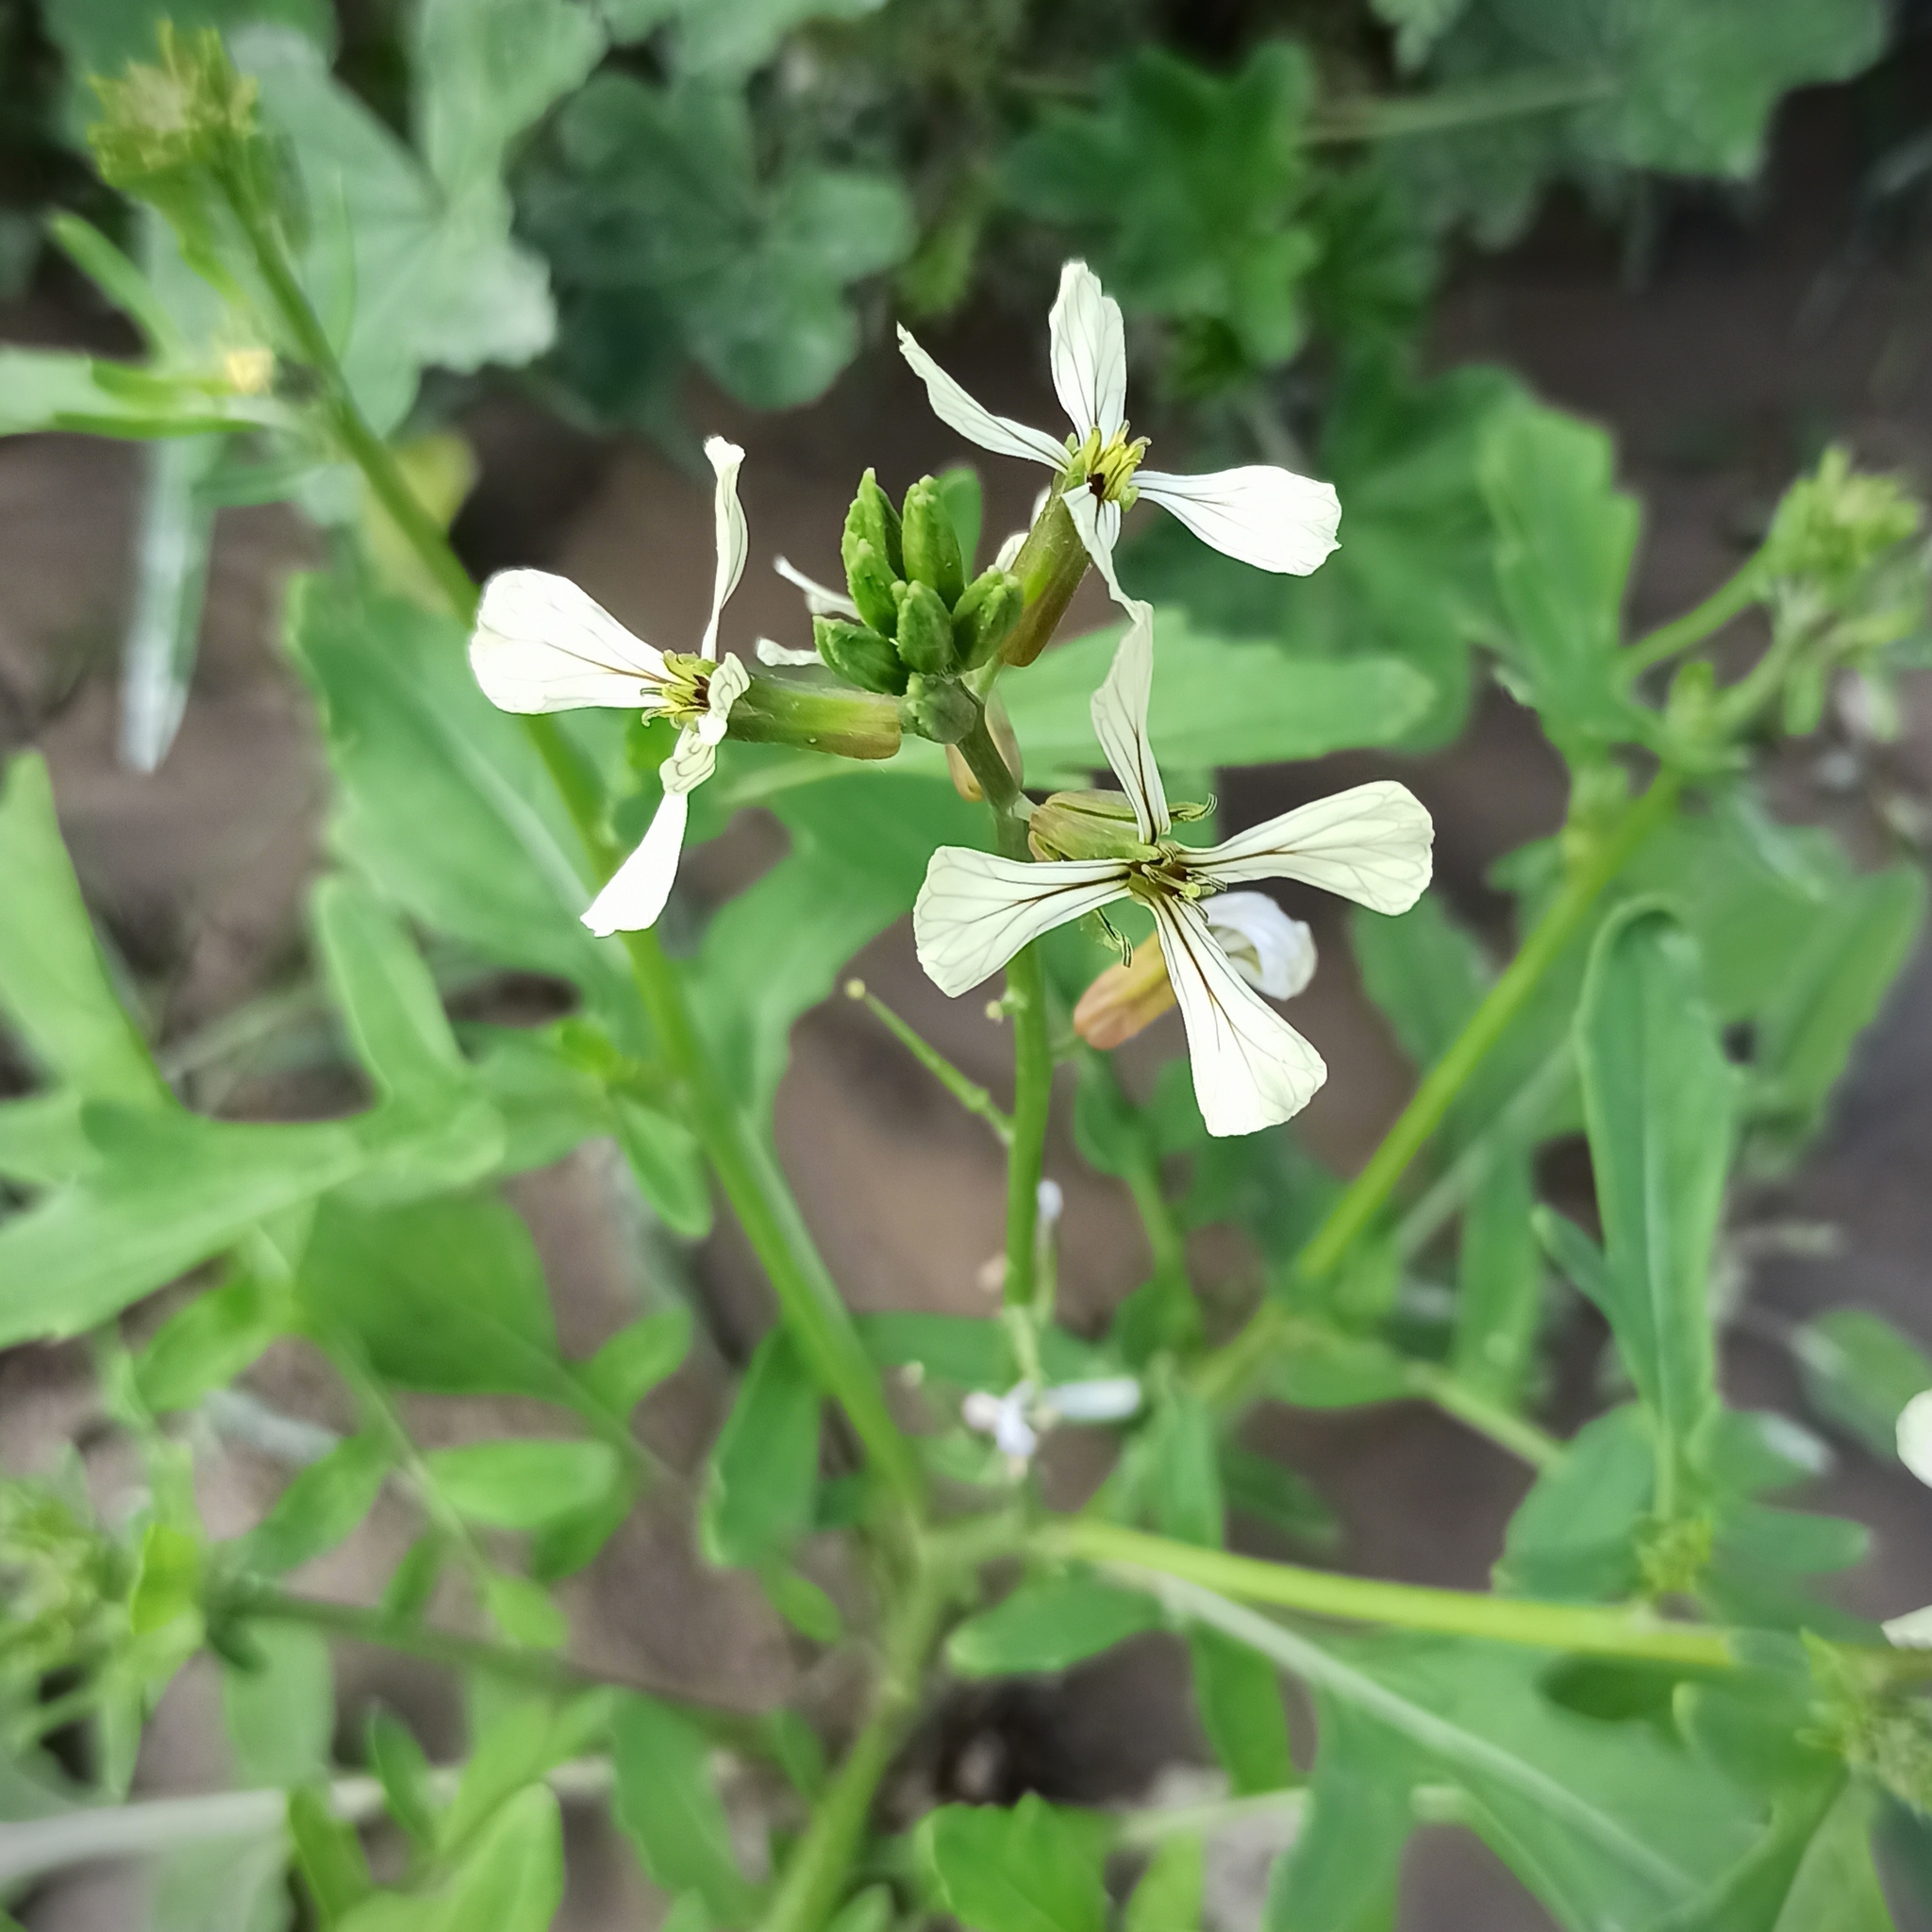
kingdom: Plantae
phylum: Tracheophyta
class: Magnoliopsida
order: Brassicales
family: Brassicaceae
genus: Eruca
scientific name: Eruca vesicaria
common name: Garden rocket
